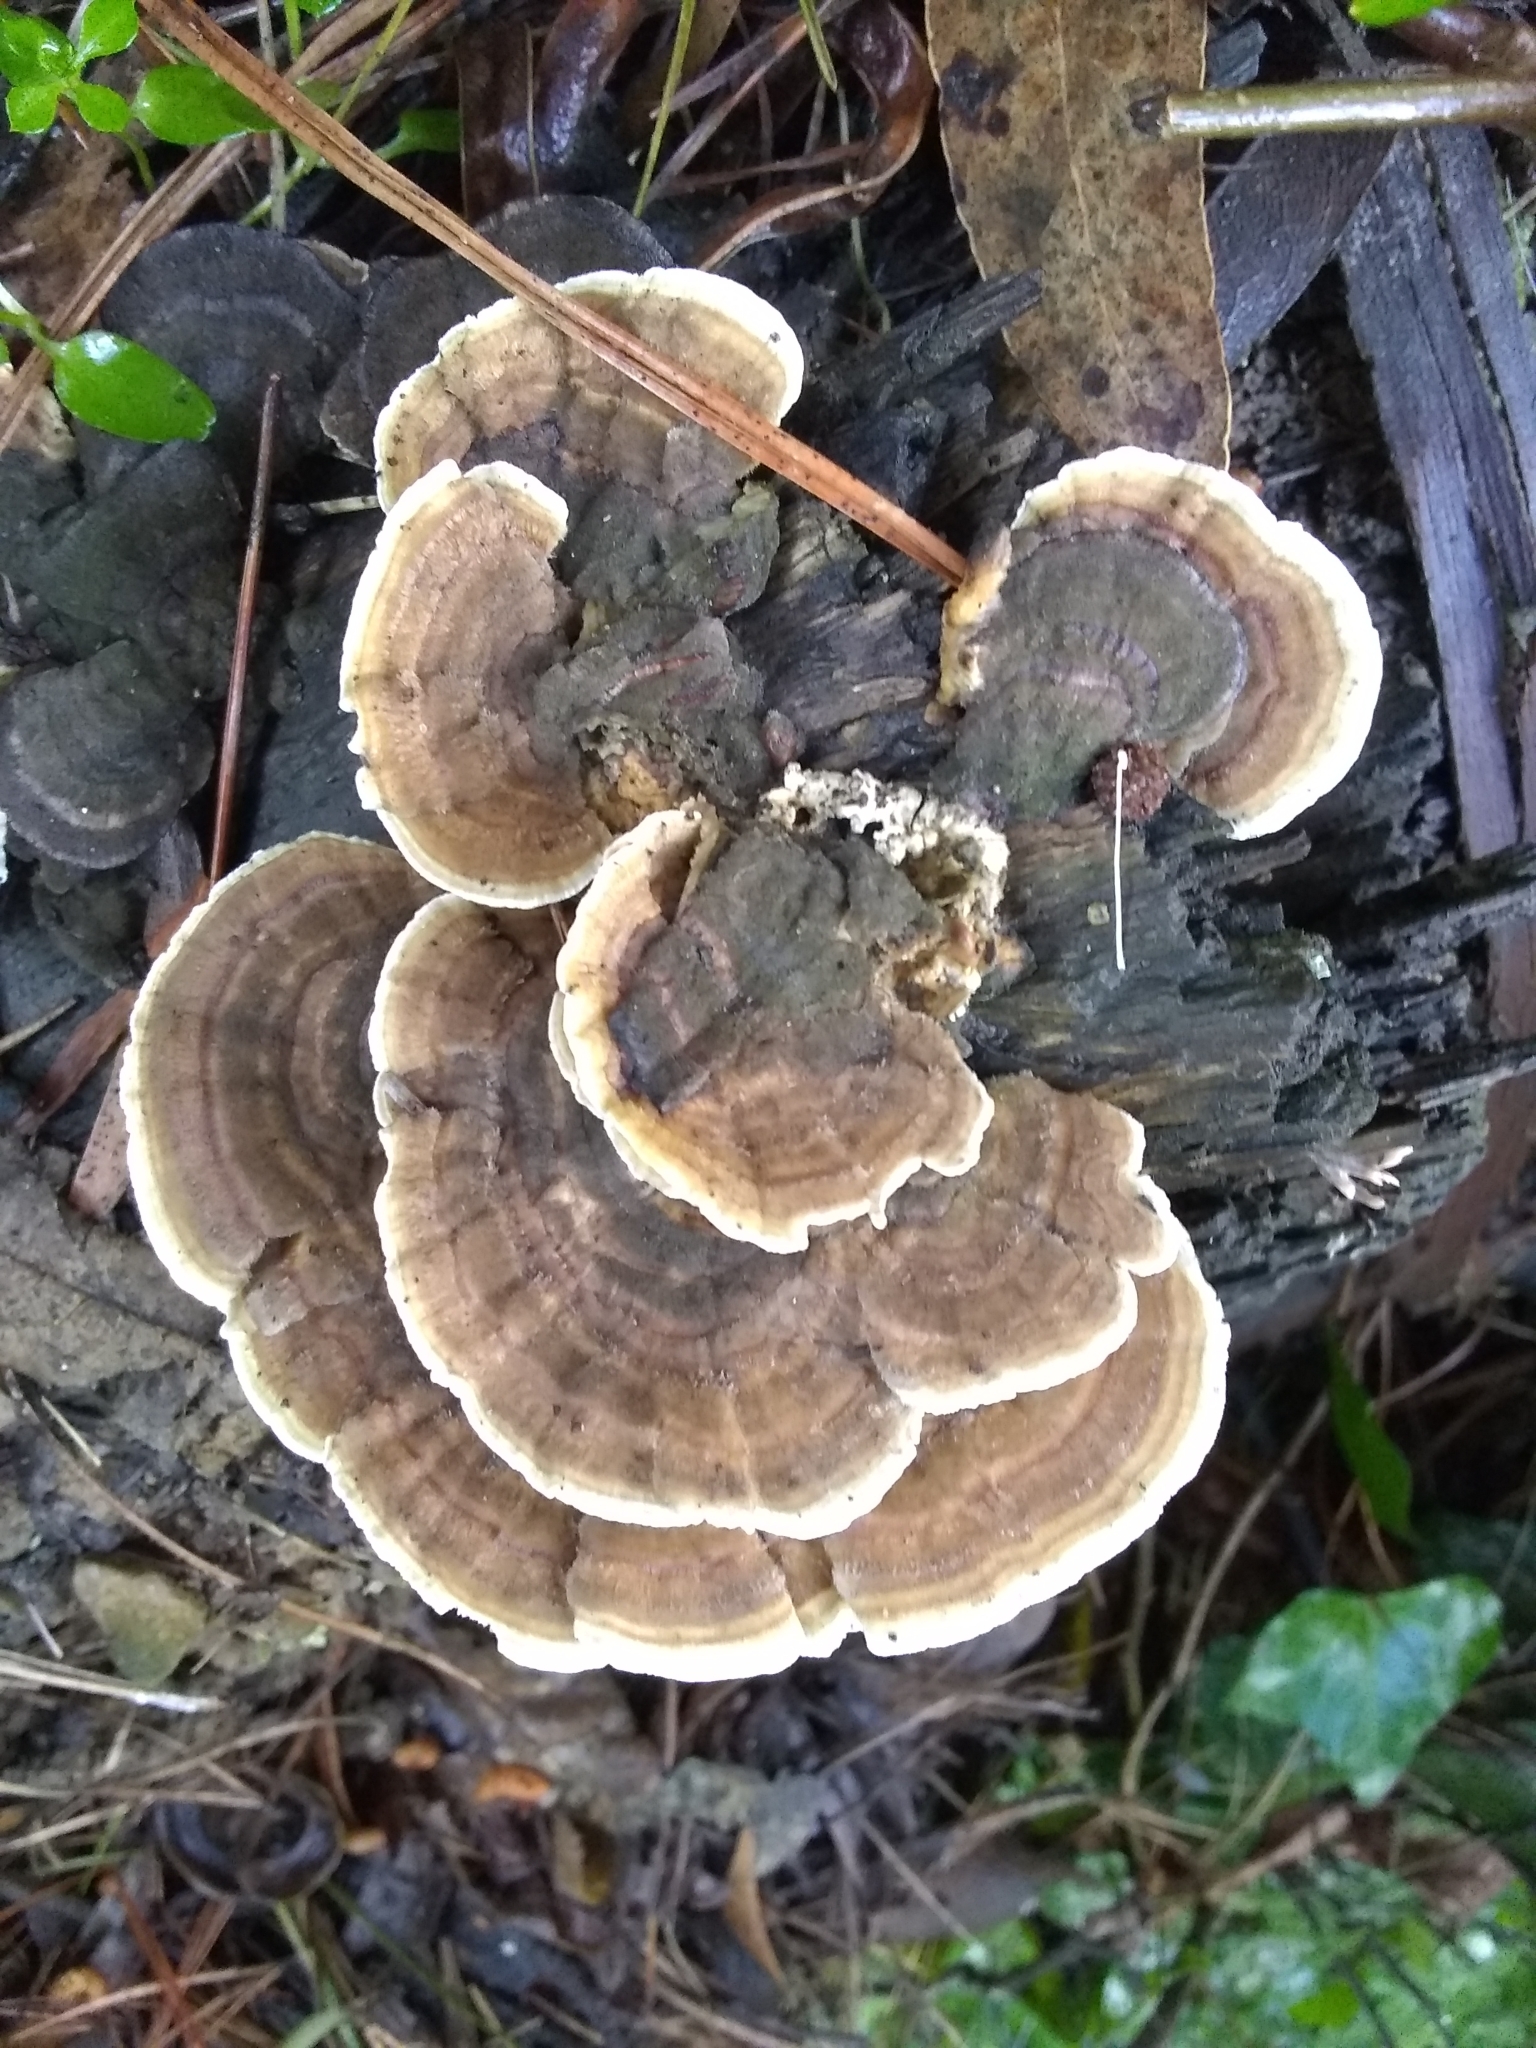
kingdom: Fungi
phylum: Basidiomycota
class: Agaricomycetes
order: Polyporales
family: Polyporaceae
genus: Trametes
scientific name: Trametes versicolor
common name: Turkeytail
